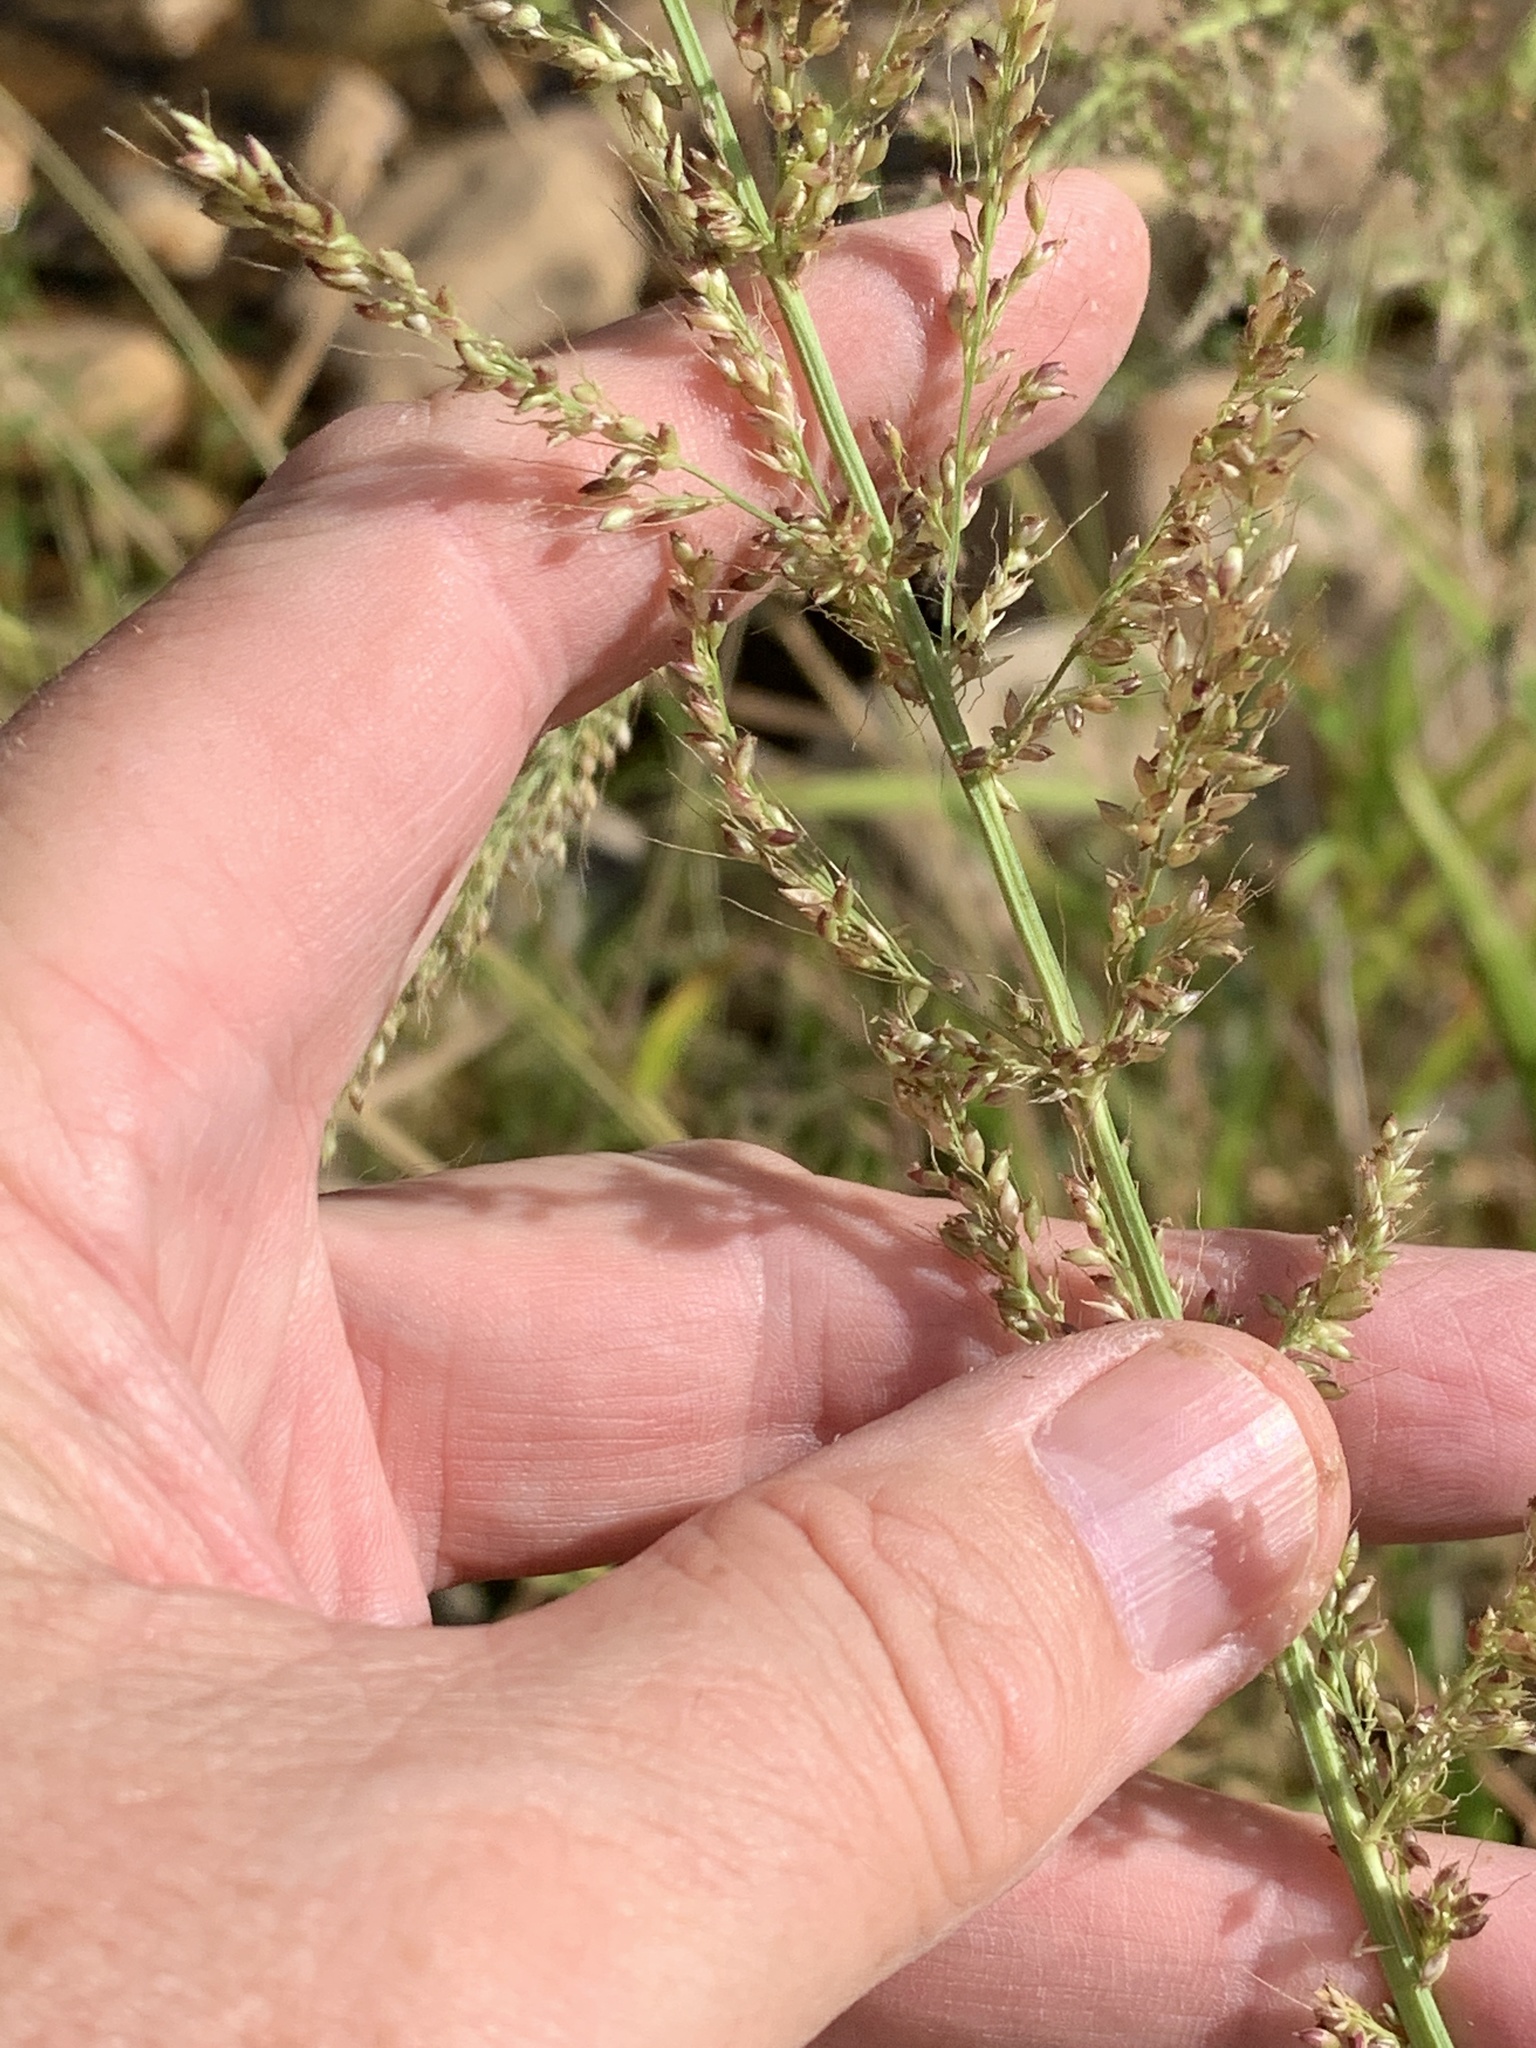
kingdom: Plantae
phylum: Tracheophyta
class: Liliopsida
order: Poales
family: Poaceae
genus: Setaria
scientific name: Setaria megaphylla
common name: Bigleaf bristlegrass
